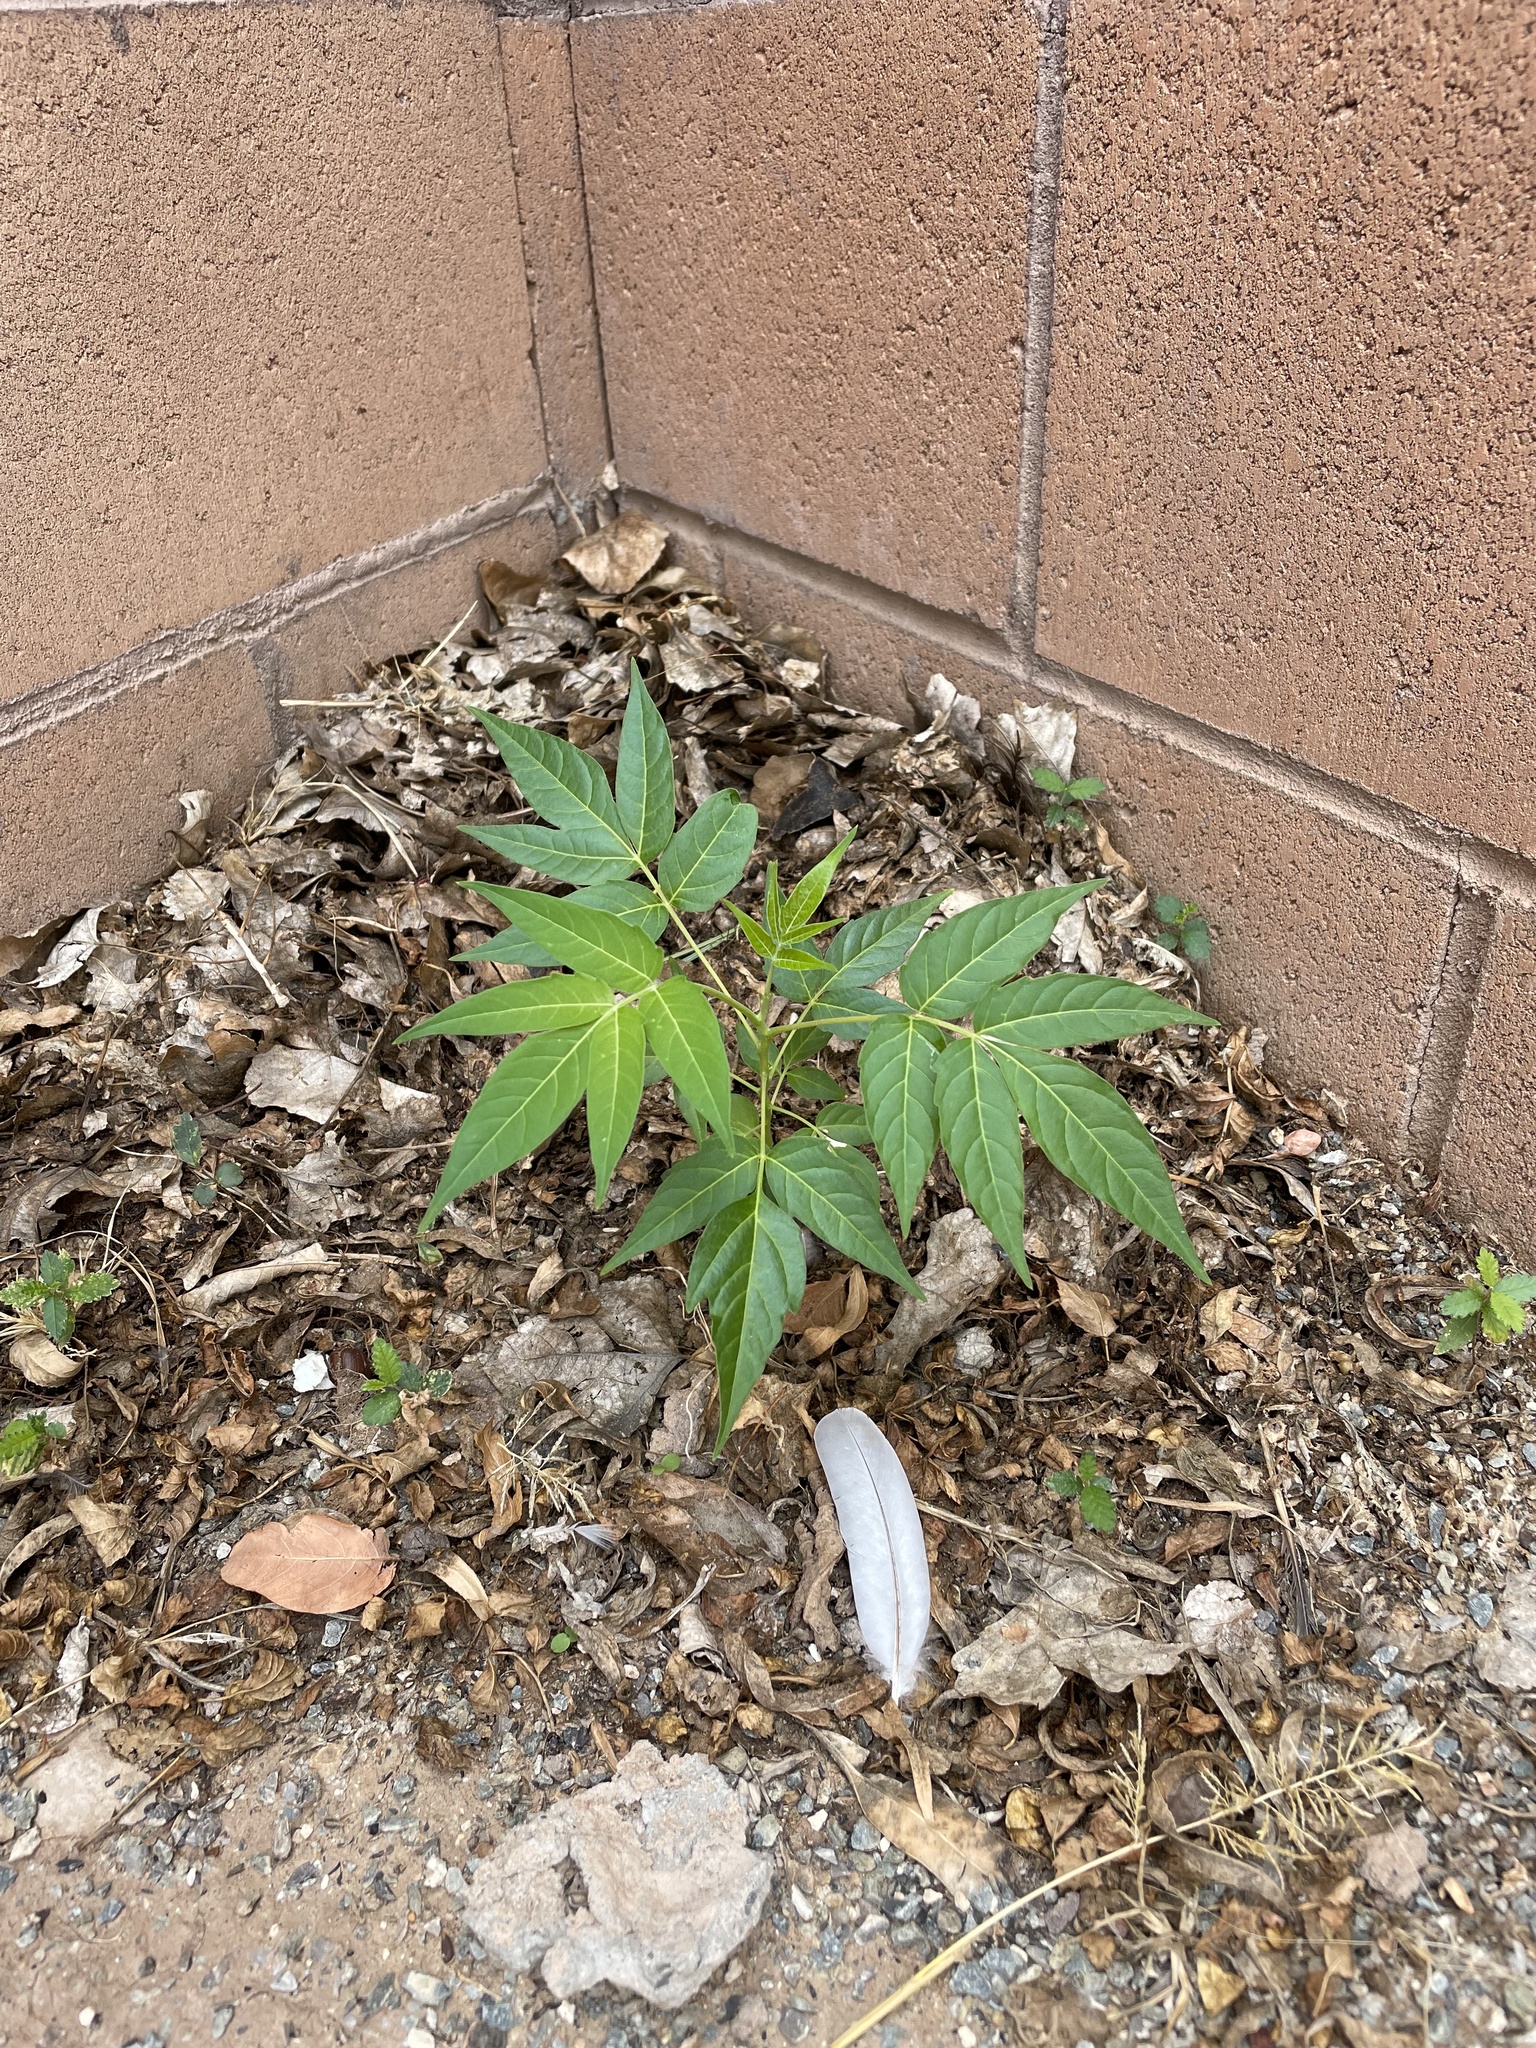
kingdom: Plantae
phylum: Tracheophyta
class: Magnoliopsida
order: Sapindales
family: Simaroubaceae
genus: Ailanthus
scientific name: Ailanthus altissima
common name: Tree-of-heaven
